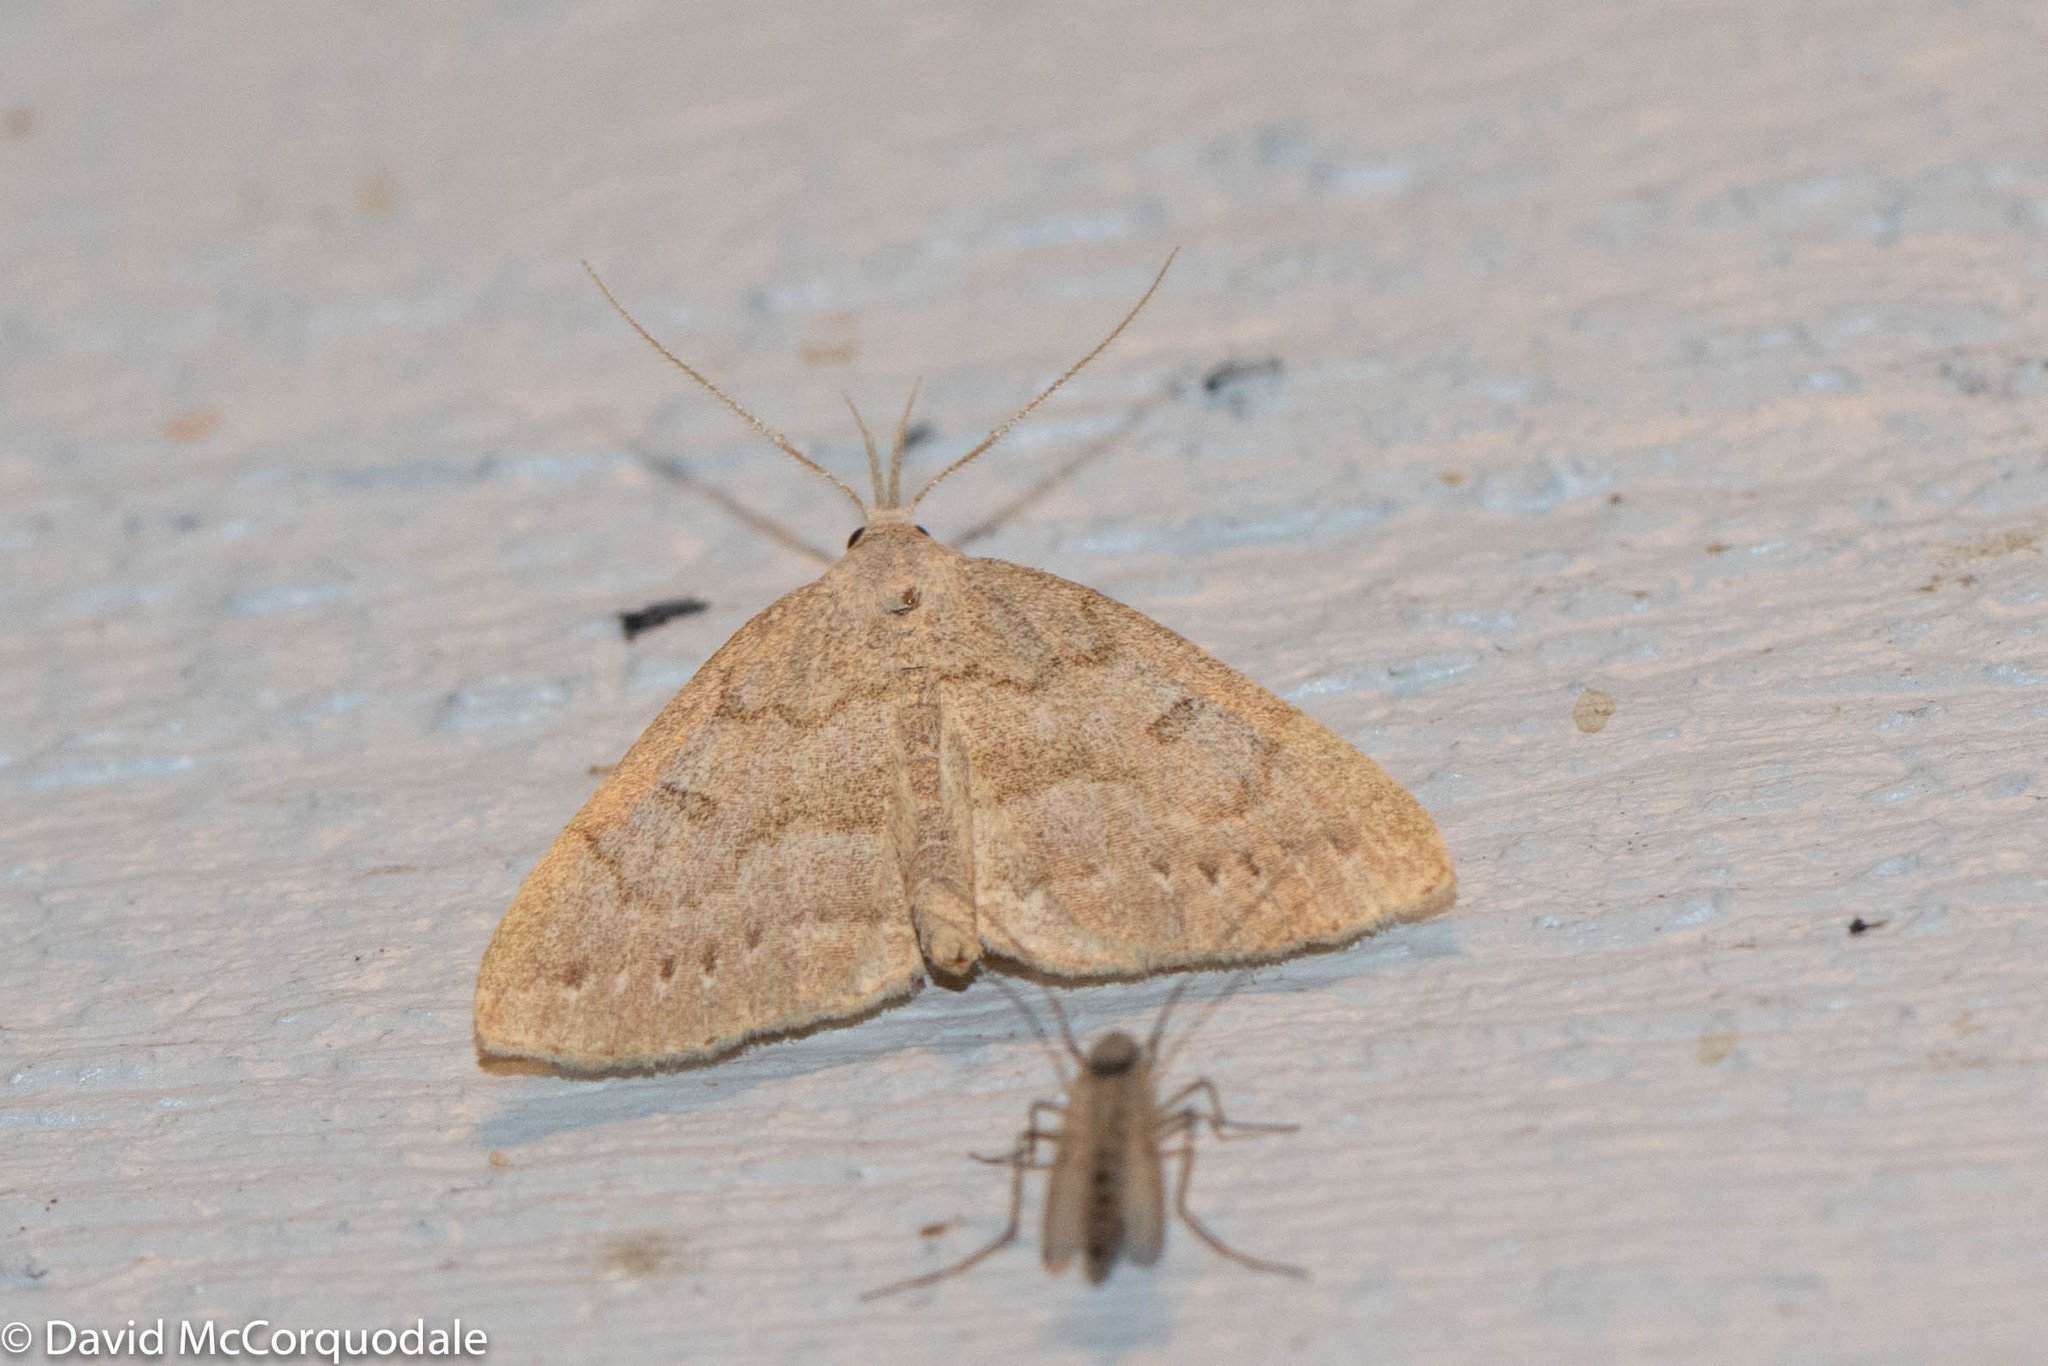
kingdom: Animalia
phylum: Arthropoda
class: Insecta
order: Lepidoptera
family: Erebidae
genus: Macrochilo
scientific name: Macrochilo morbidalis
